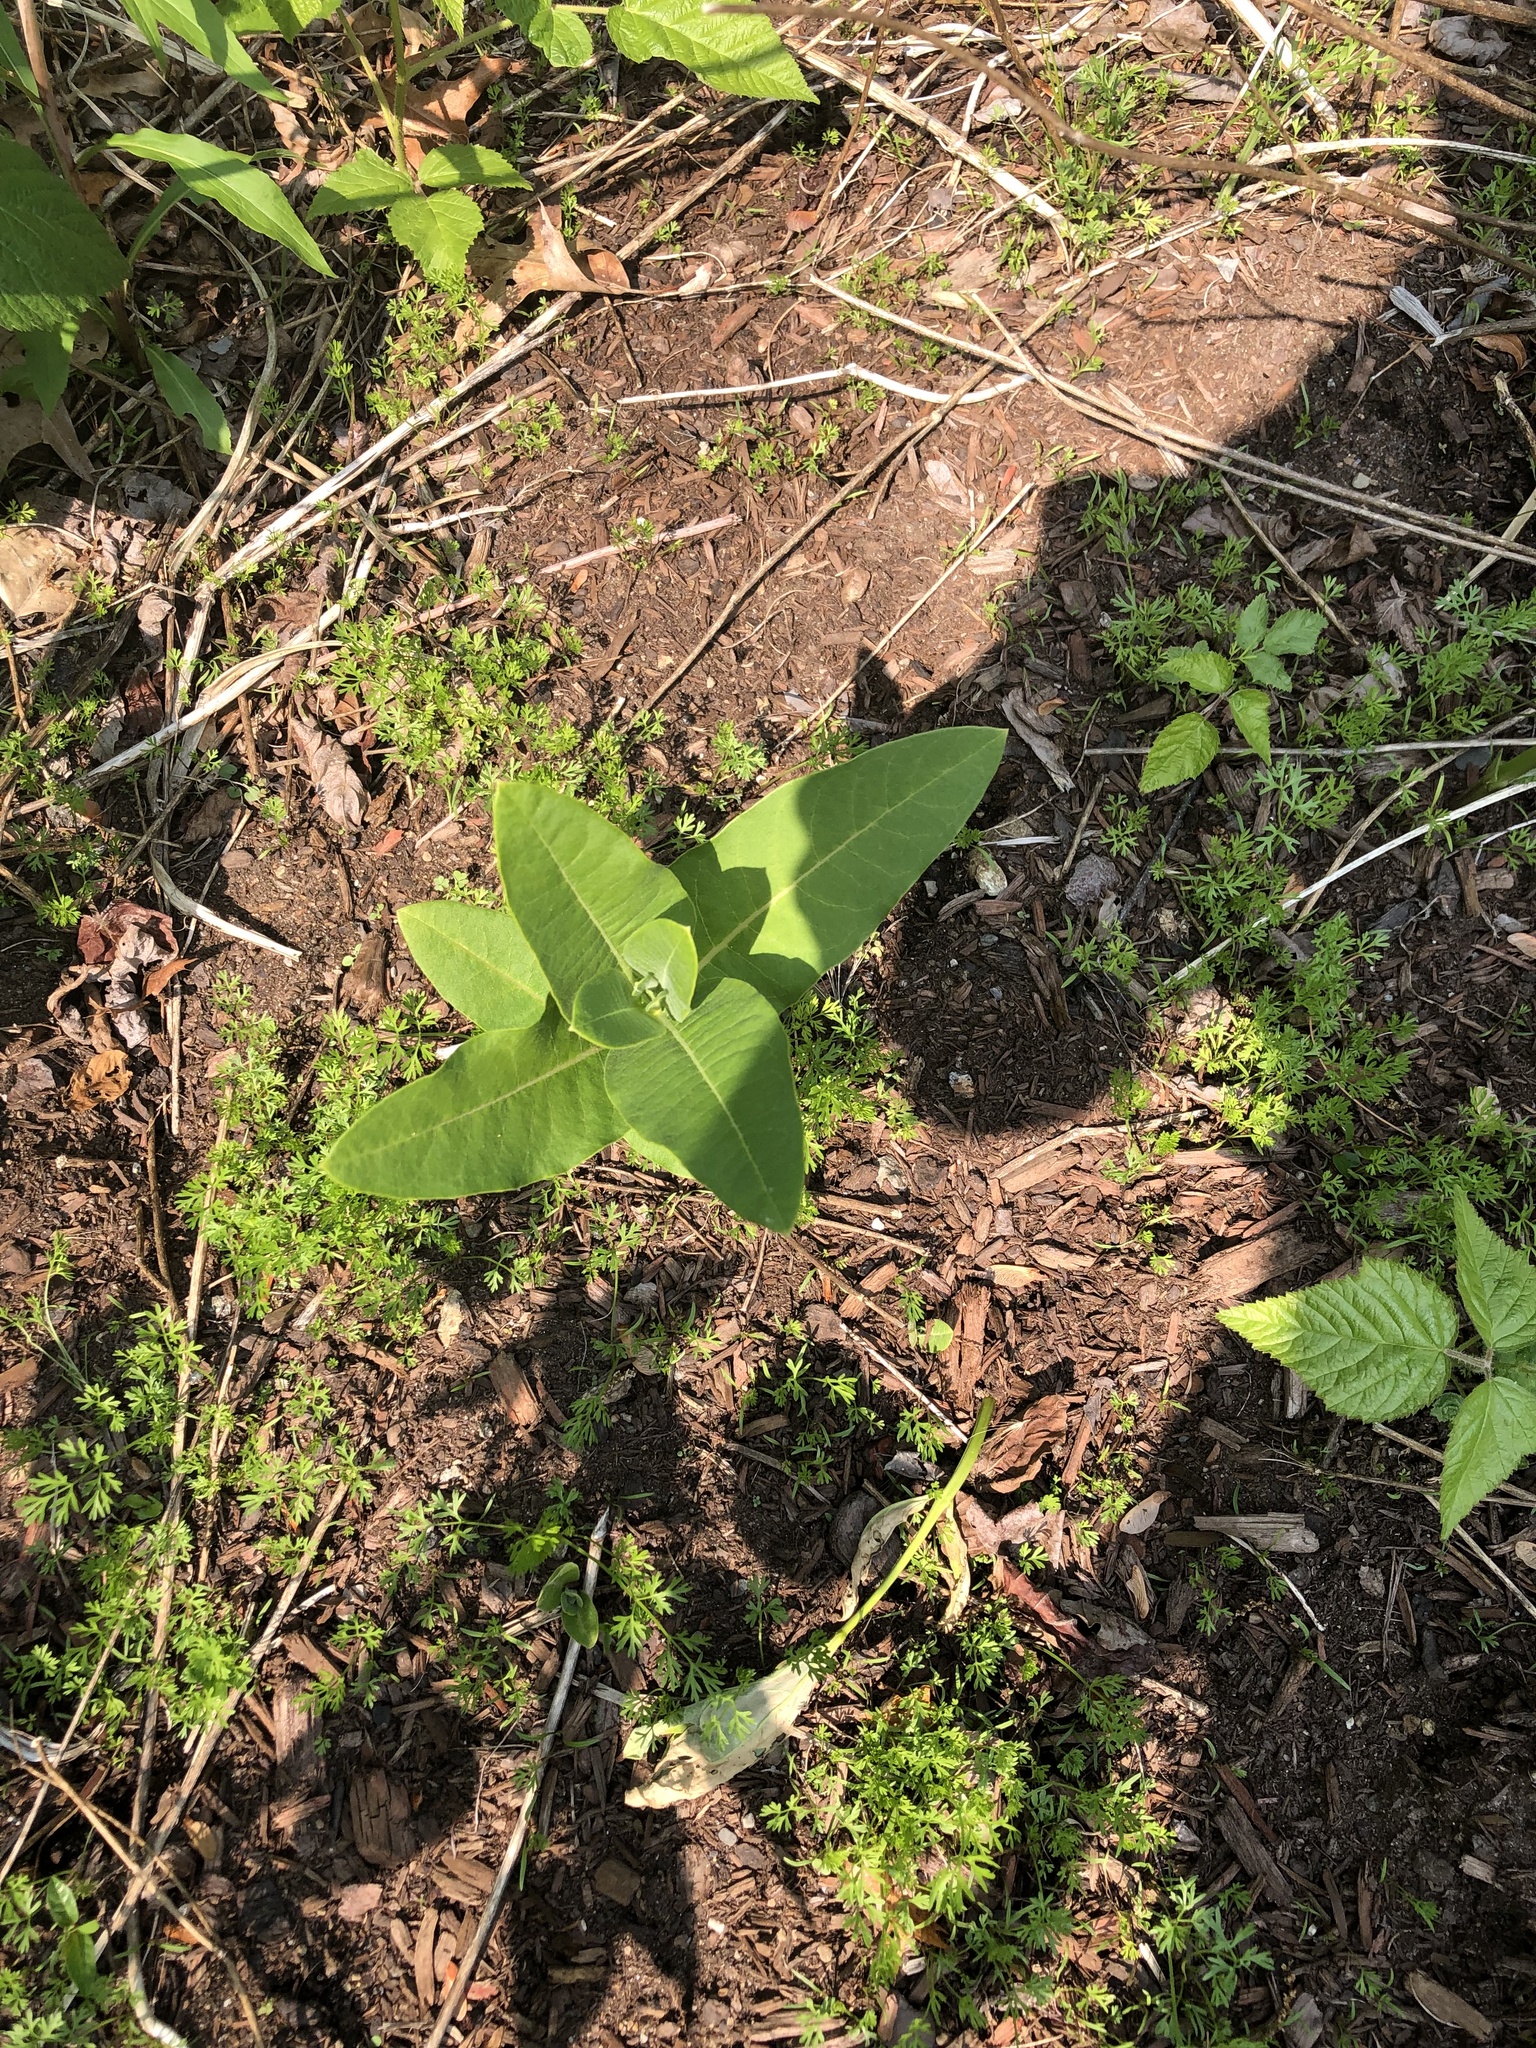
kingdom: Plantae
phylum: Tracheophyta
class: Magnoliopsida
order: Gentianales
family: Apocynaceae
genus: Asclepias
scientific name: Asclepias syriaca
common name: Common milkweed
